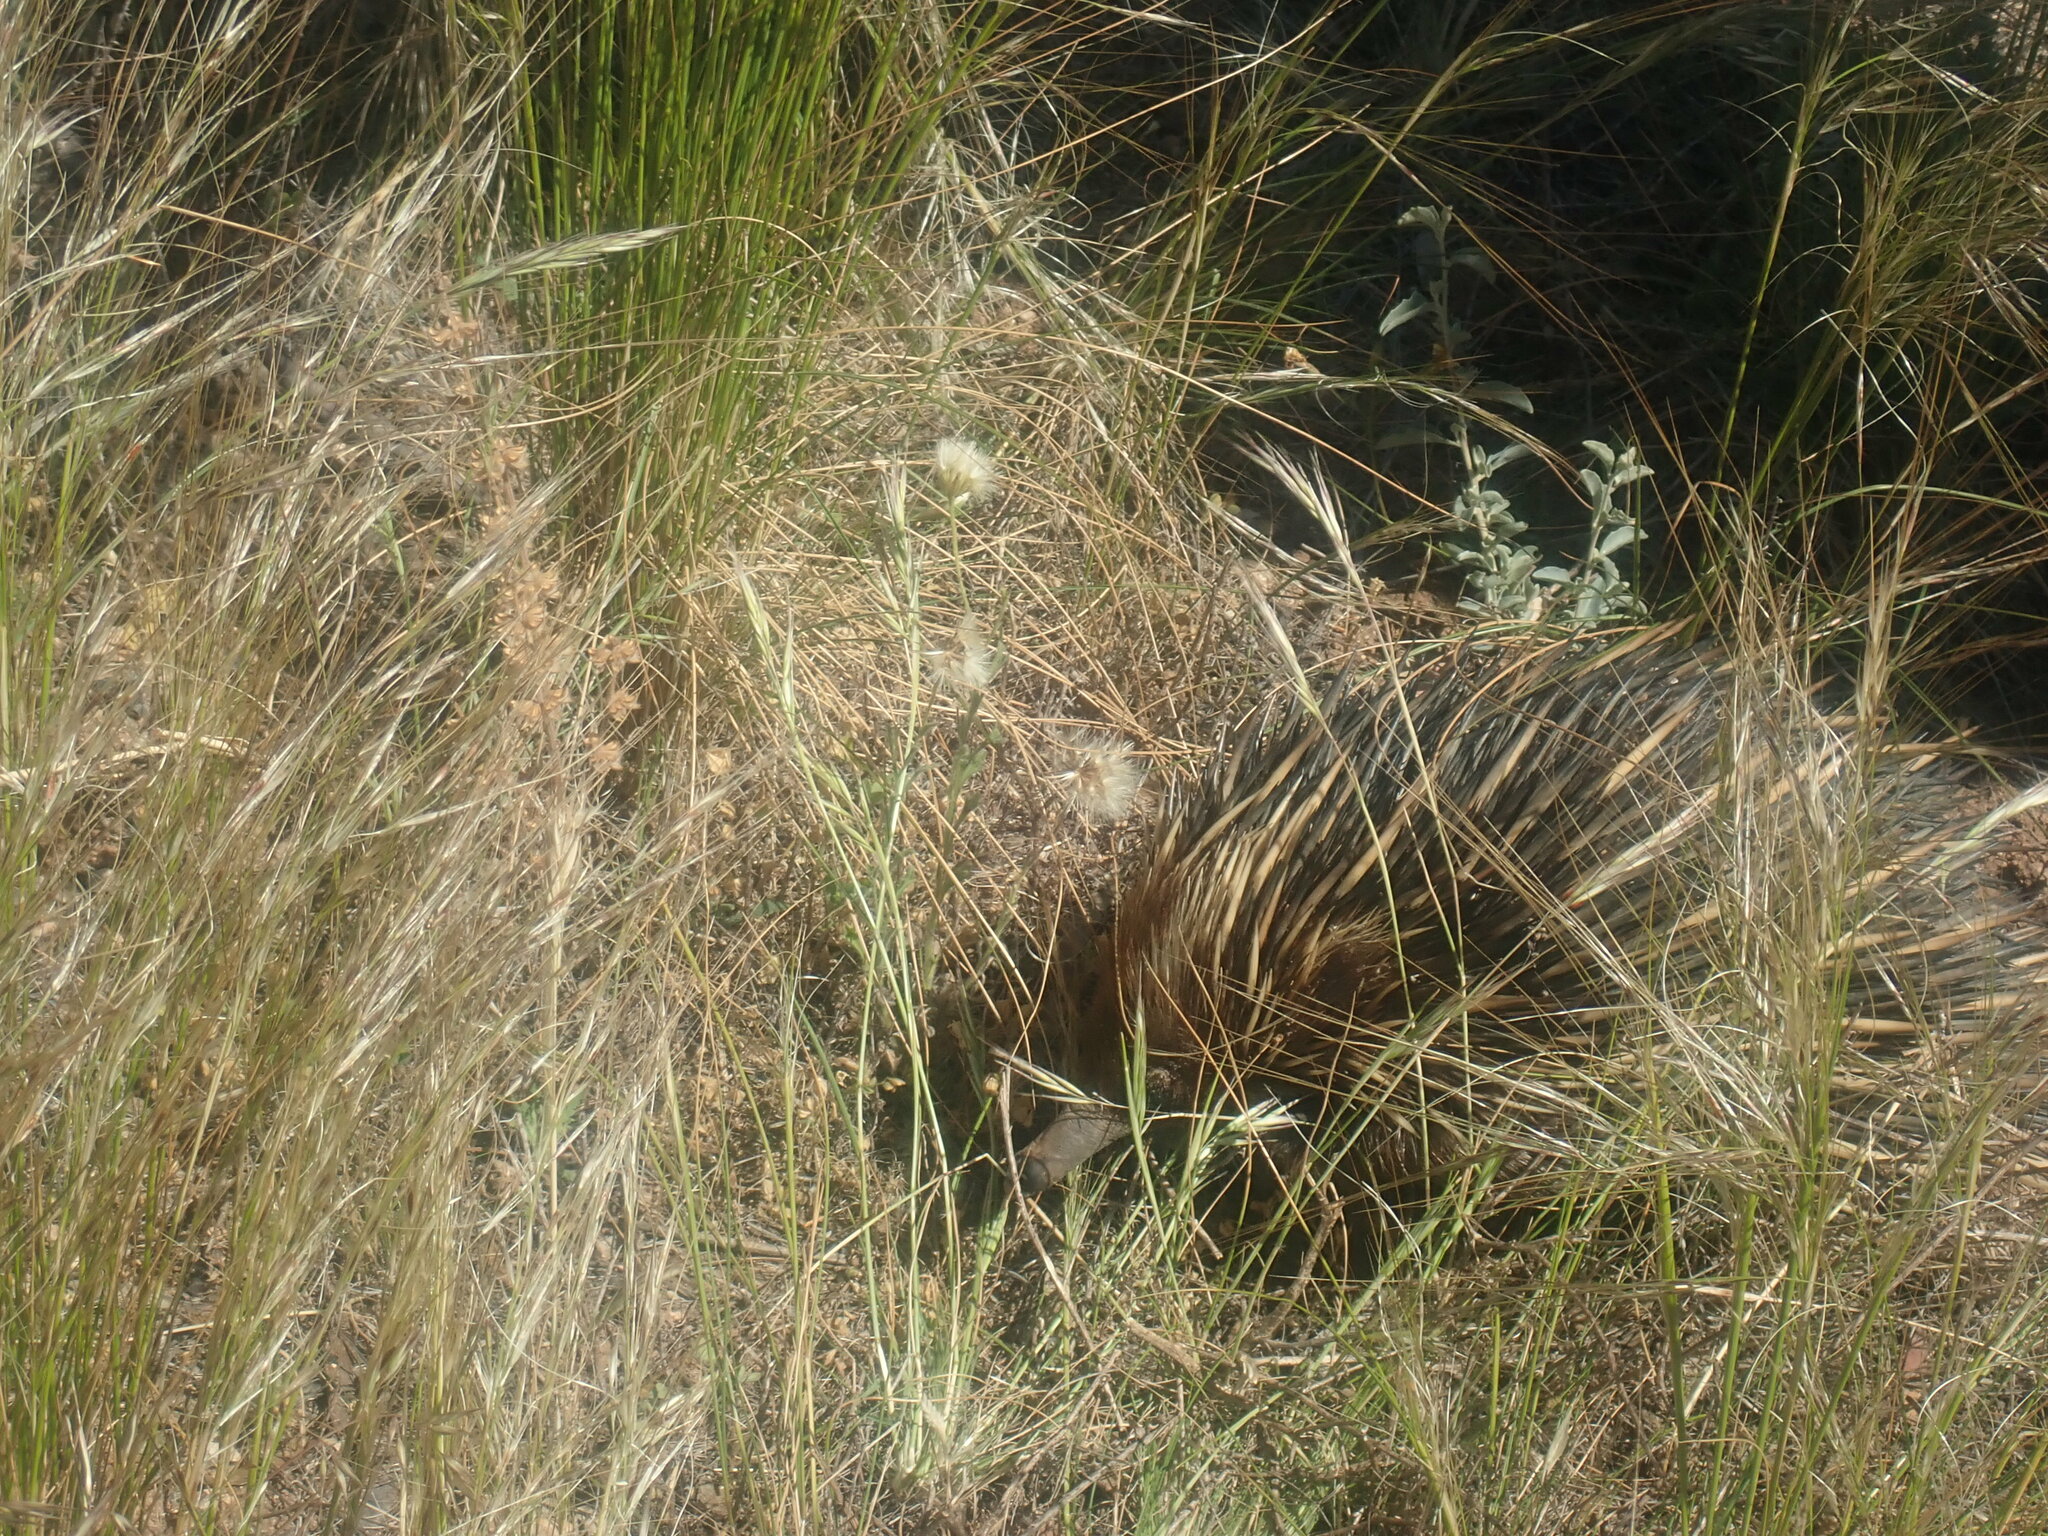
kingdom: Animalia
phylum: Chordata
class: Mammalia
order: Monotremata
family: Tachyglossidae
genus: Tachyglossus
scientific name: Tachyglossus aculeatus
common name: Short-beaked echidna
